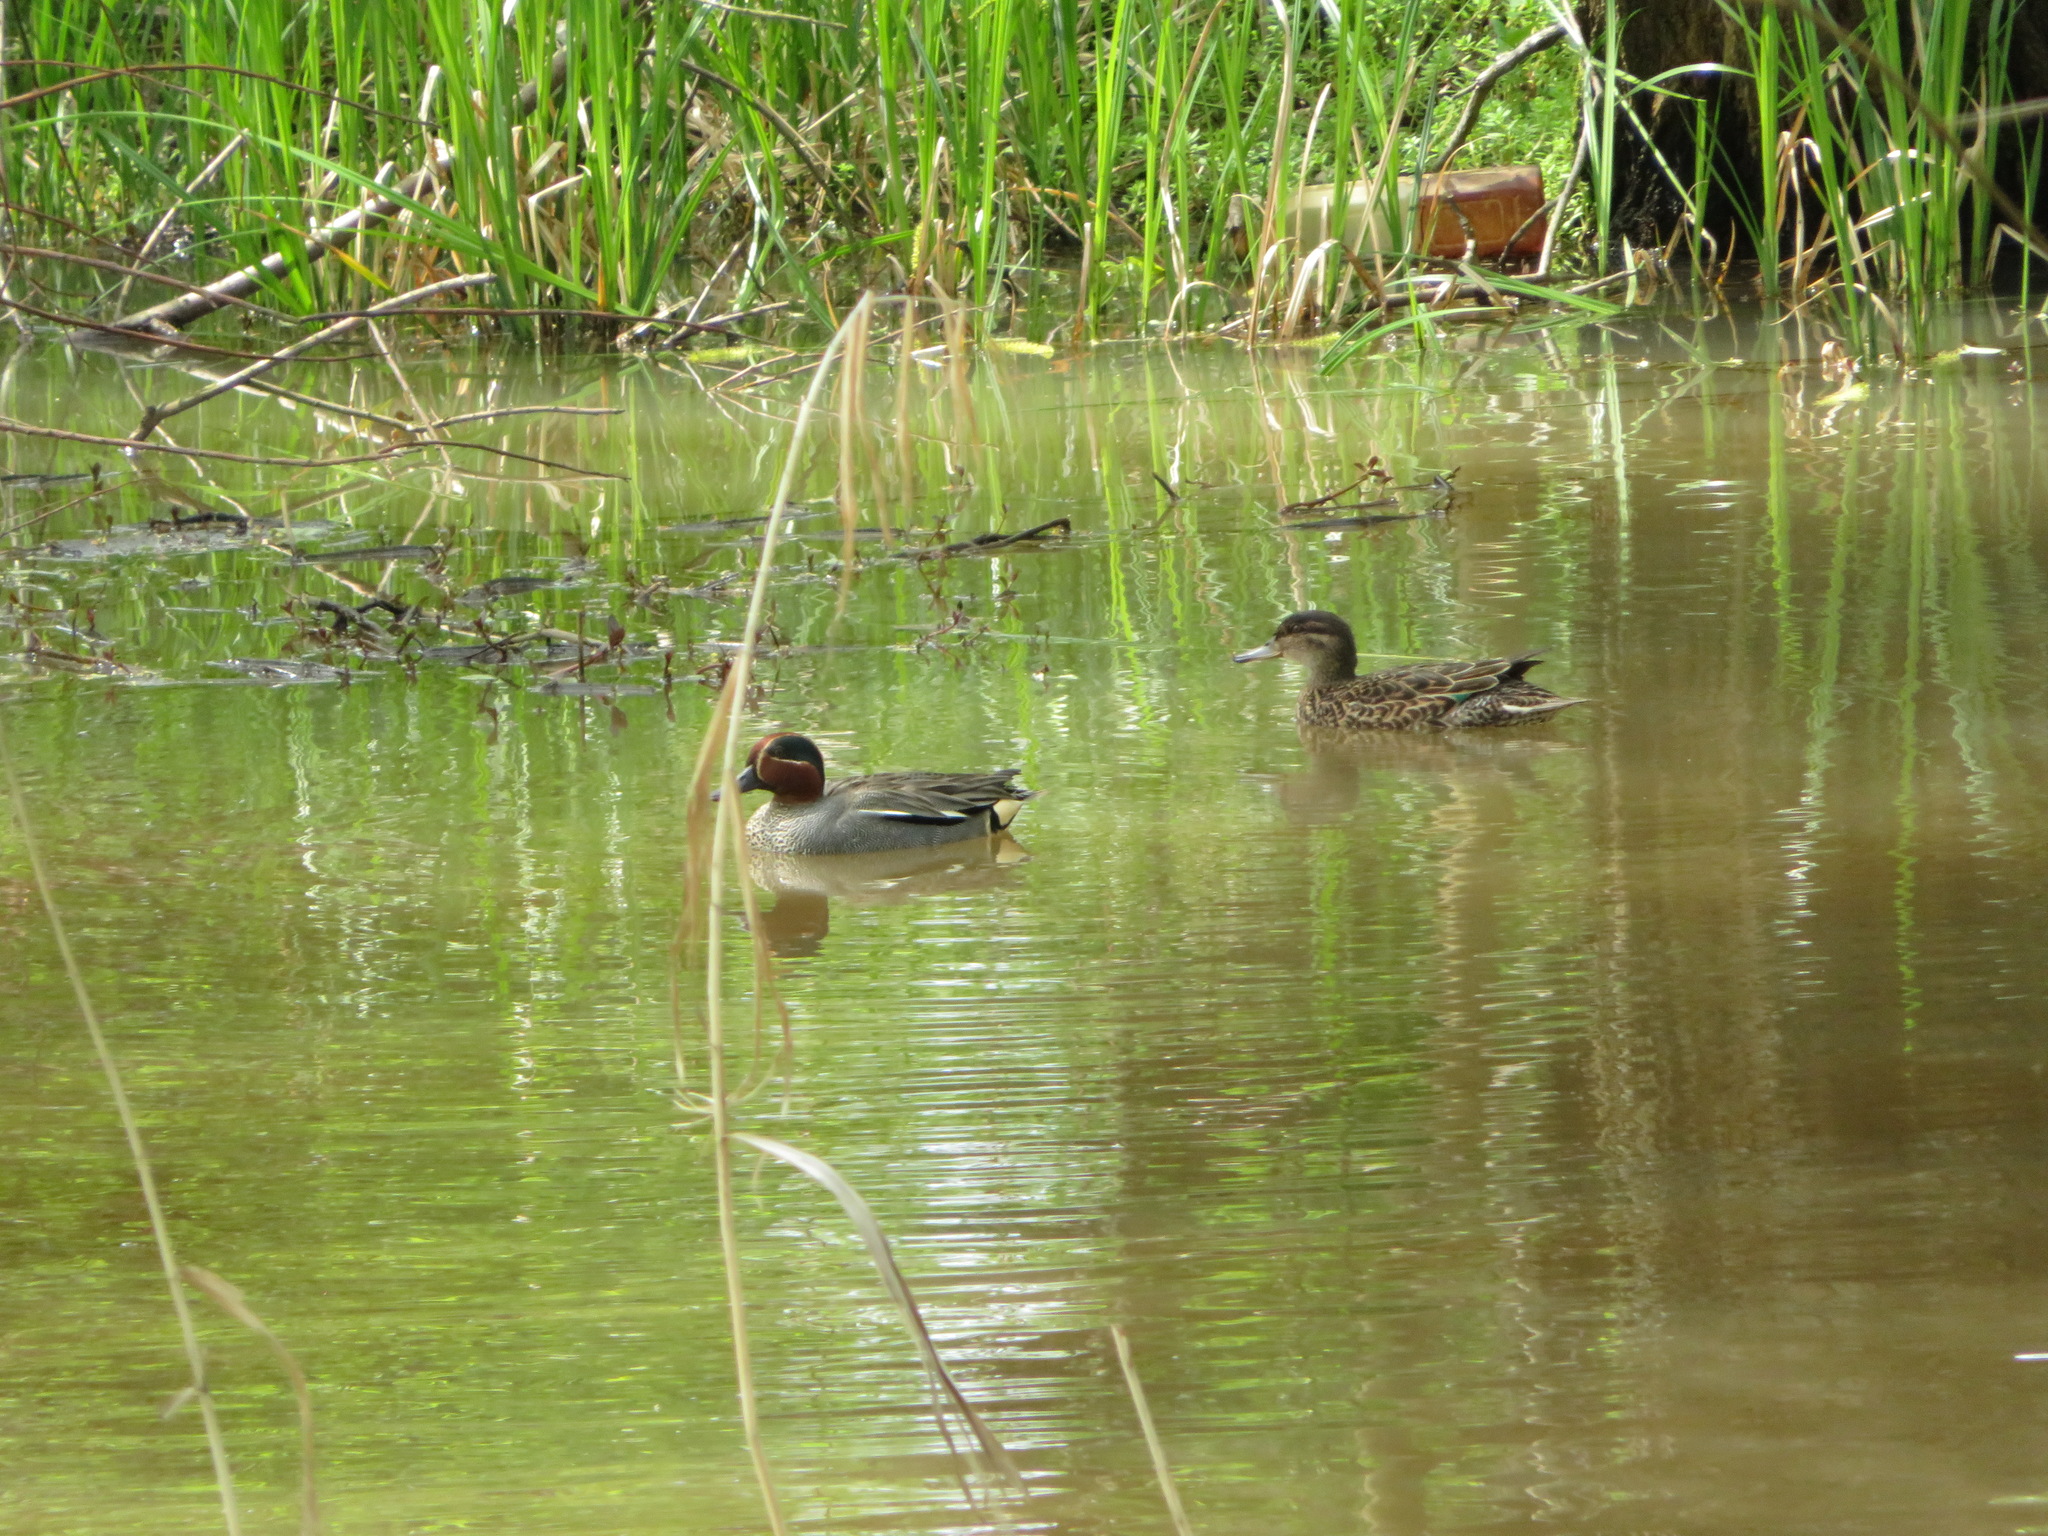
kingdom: Animalia
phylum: Chordata
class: Aves
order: Anseriformes
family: Anatidae
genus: Anas
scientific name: Anas crecca
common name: Eurasian teal
